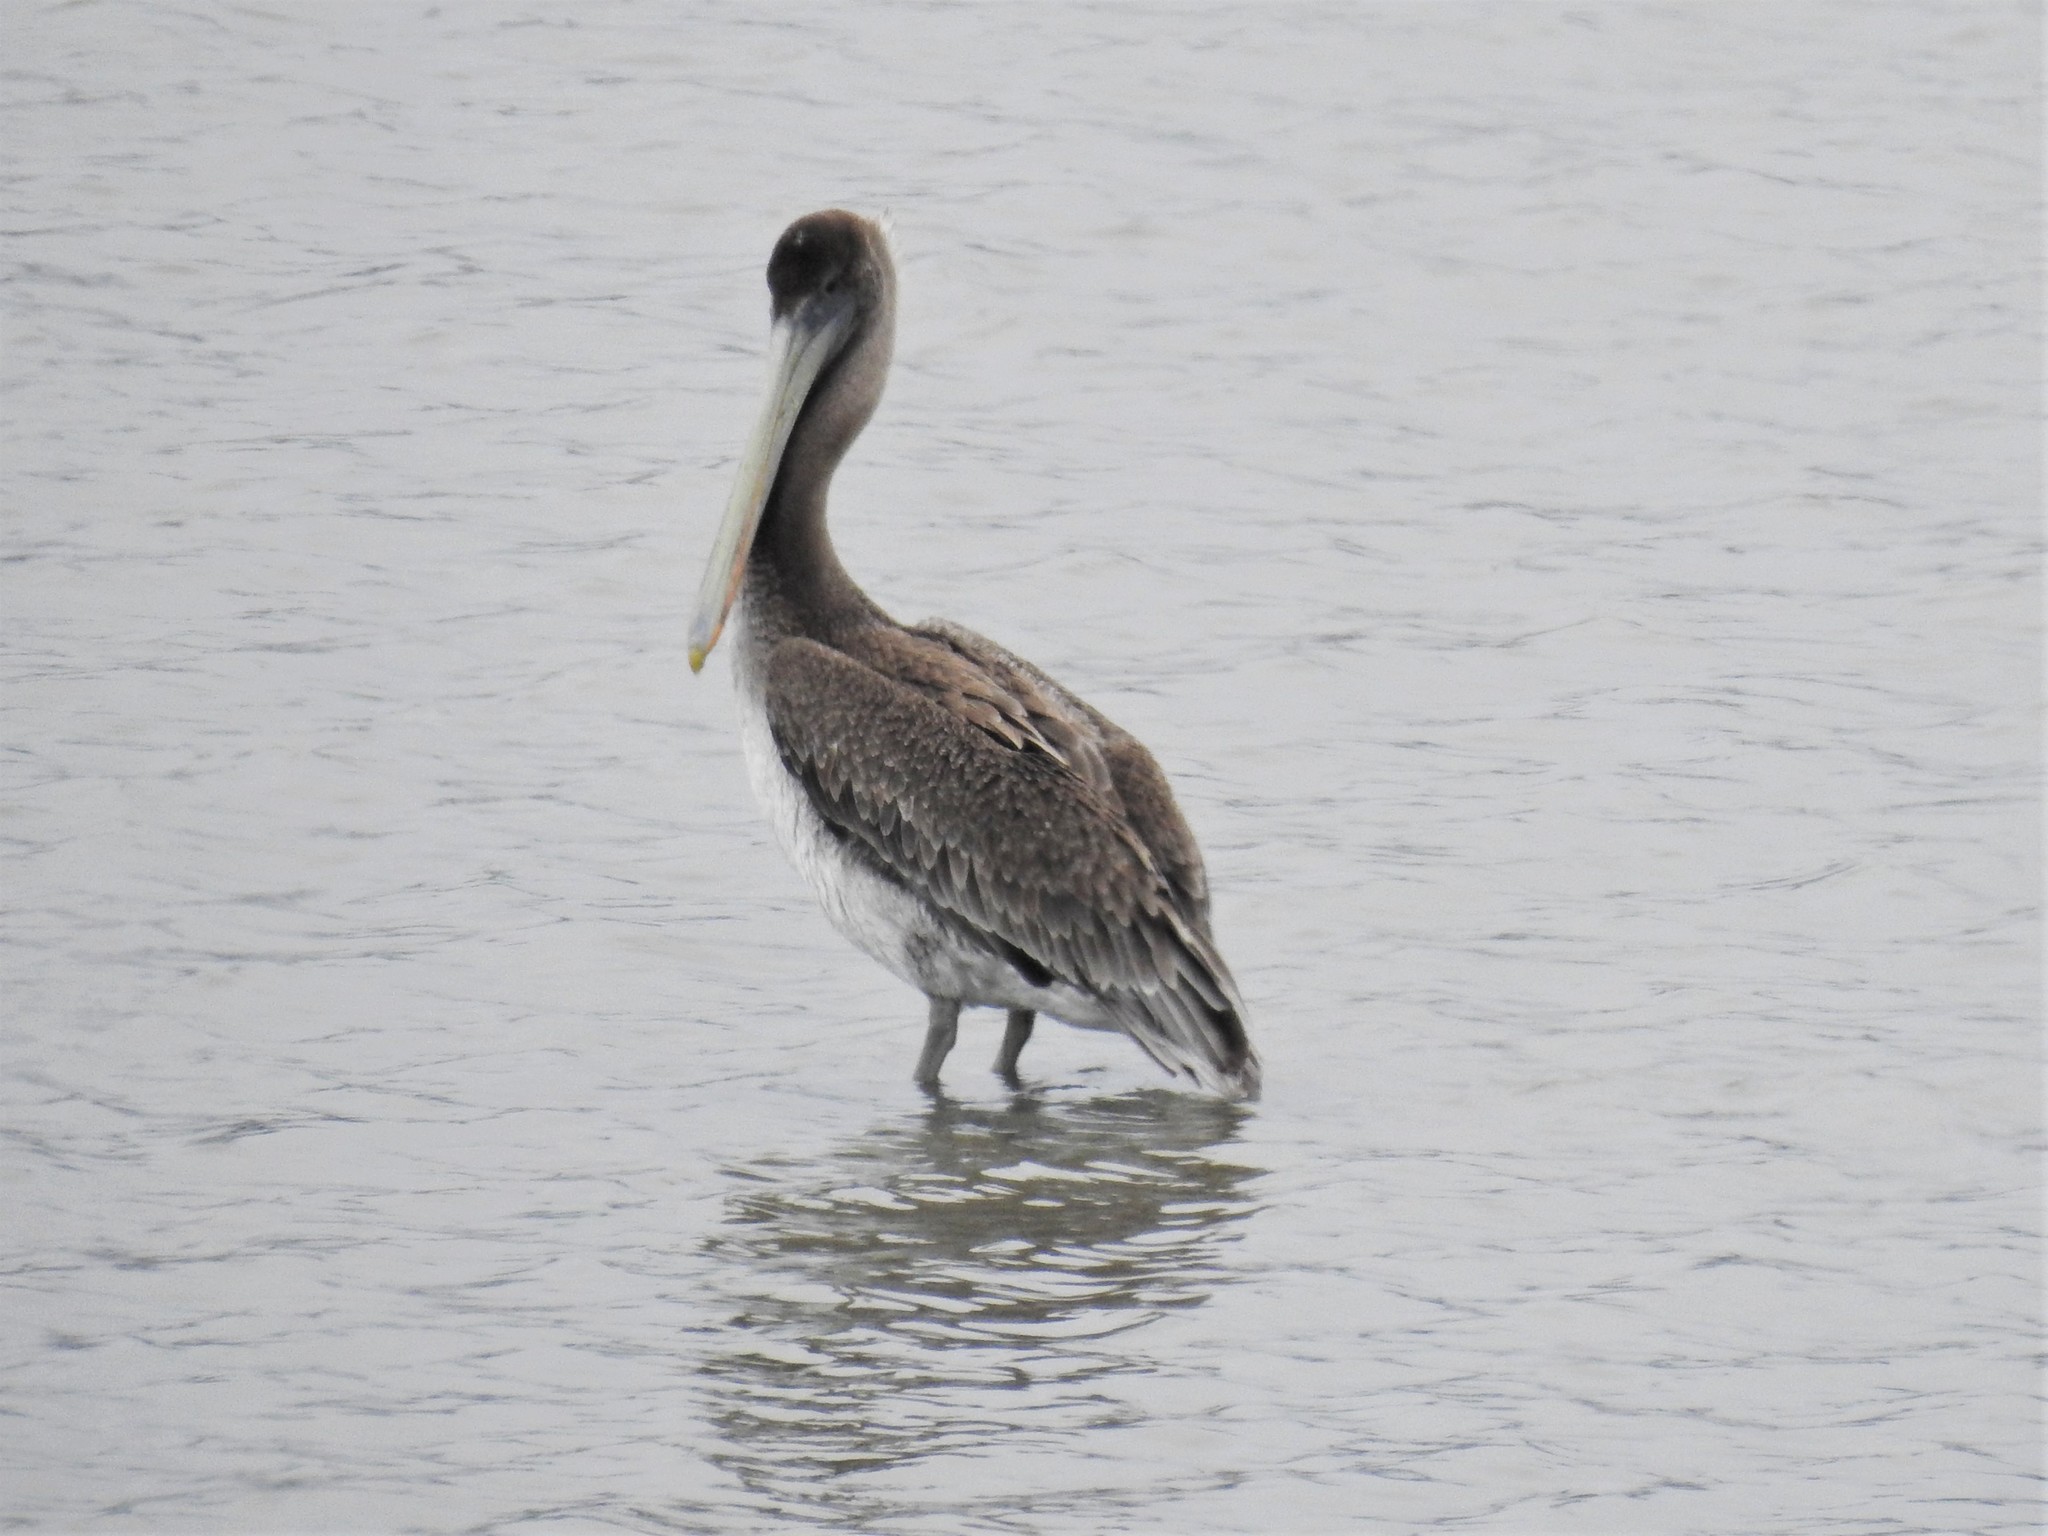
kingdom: Animalia
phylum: Chordata
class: Aves
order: Pelecaniformes
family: Pelecanidae
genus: Pelecanus
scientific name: Pelecanus occidentalis
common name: Brown pelican
